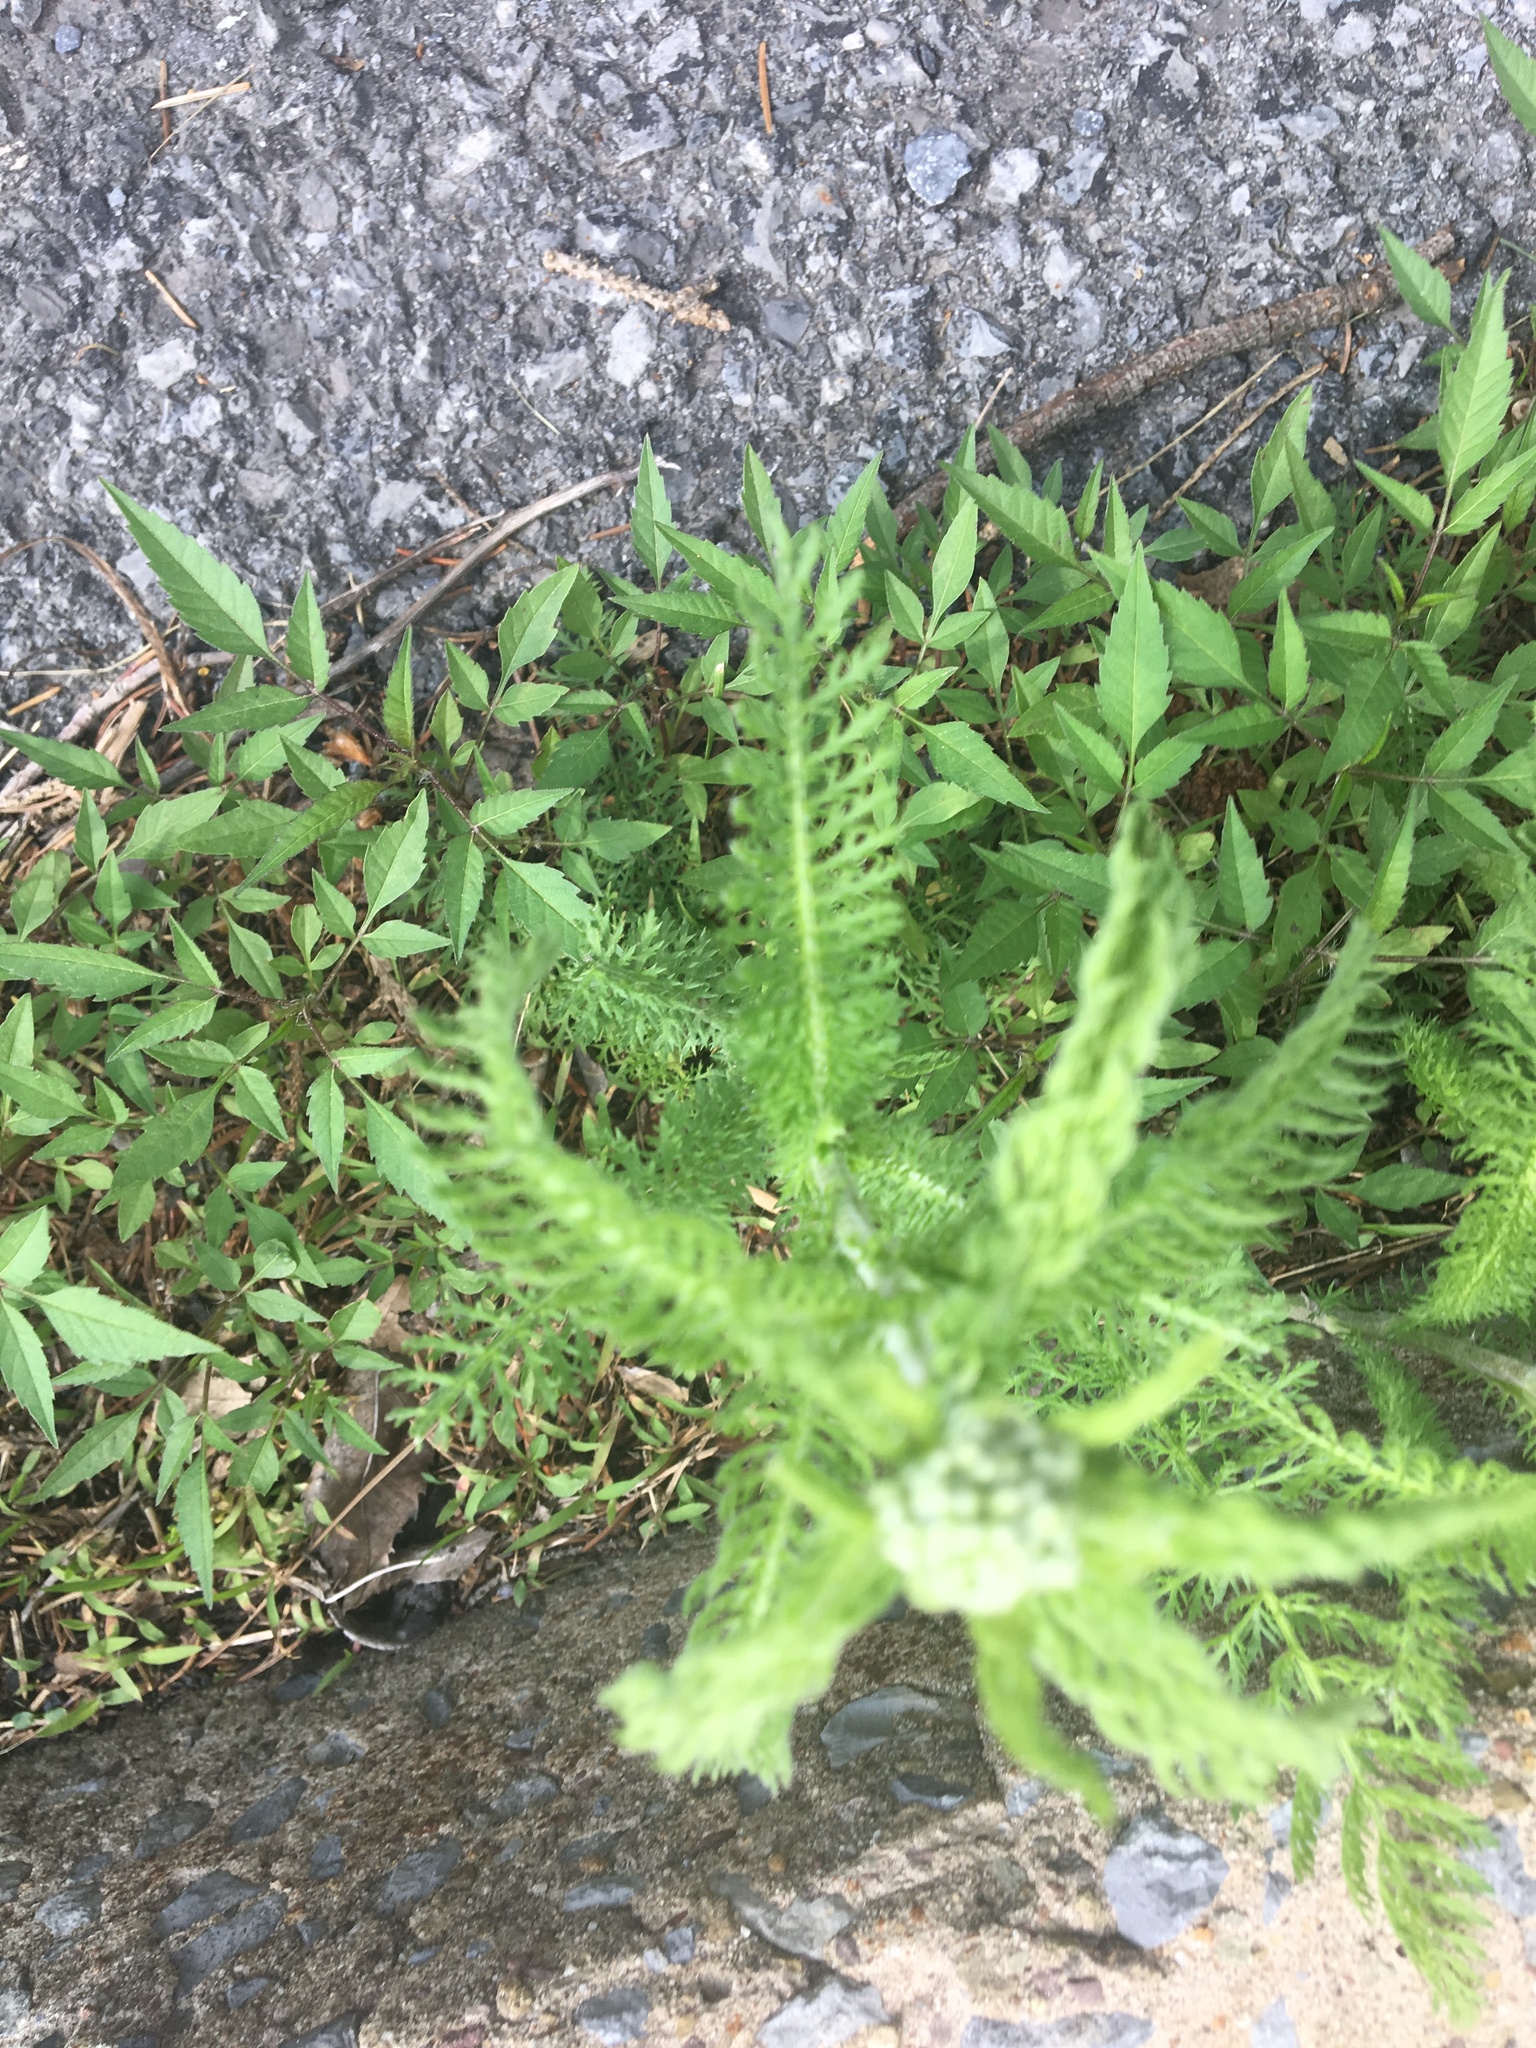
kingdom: Plantae
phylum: Tracheophyta
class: Magnoliopsida
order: Asterales
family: Asteraceae
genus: Achillea
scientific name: Achillea millefolium
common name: Yarrow
